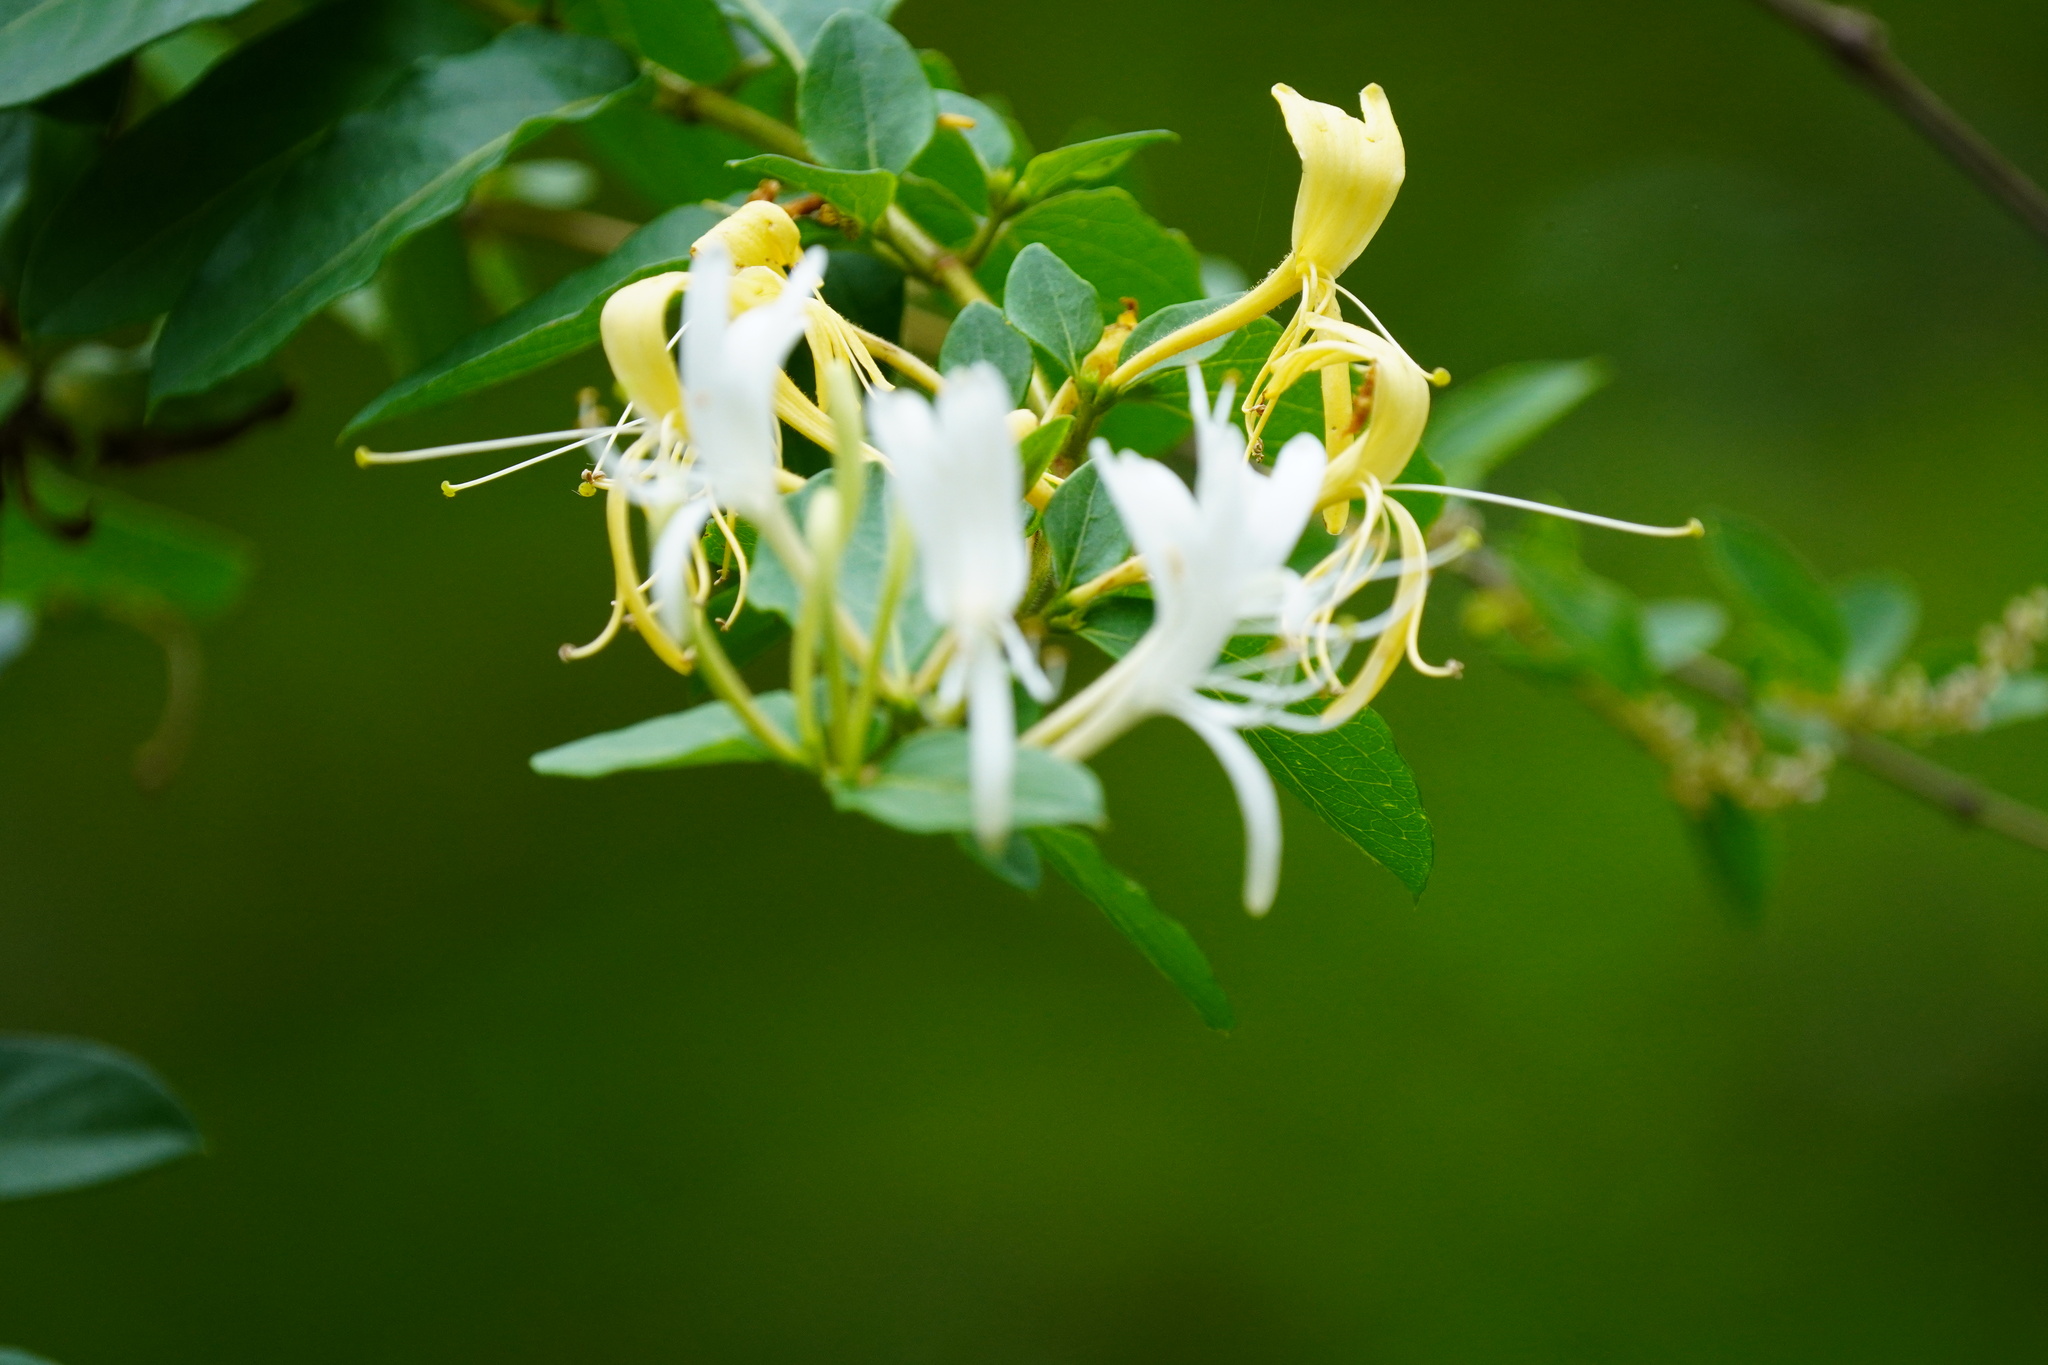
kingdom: Plantae
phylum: Tracheophyta
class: Magnoliopsida
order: Dipsacales
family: Caprifoliaceae
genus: Lonicera
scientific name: Lonicera japonica
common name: Japanese honeysuckle
